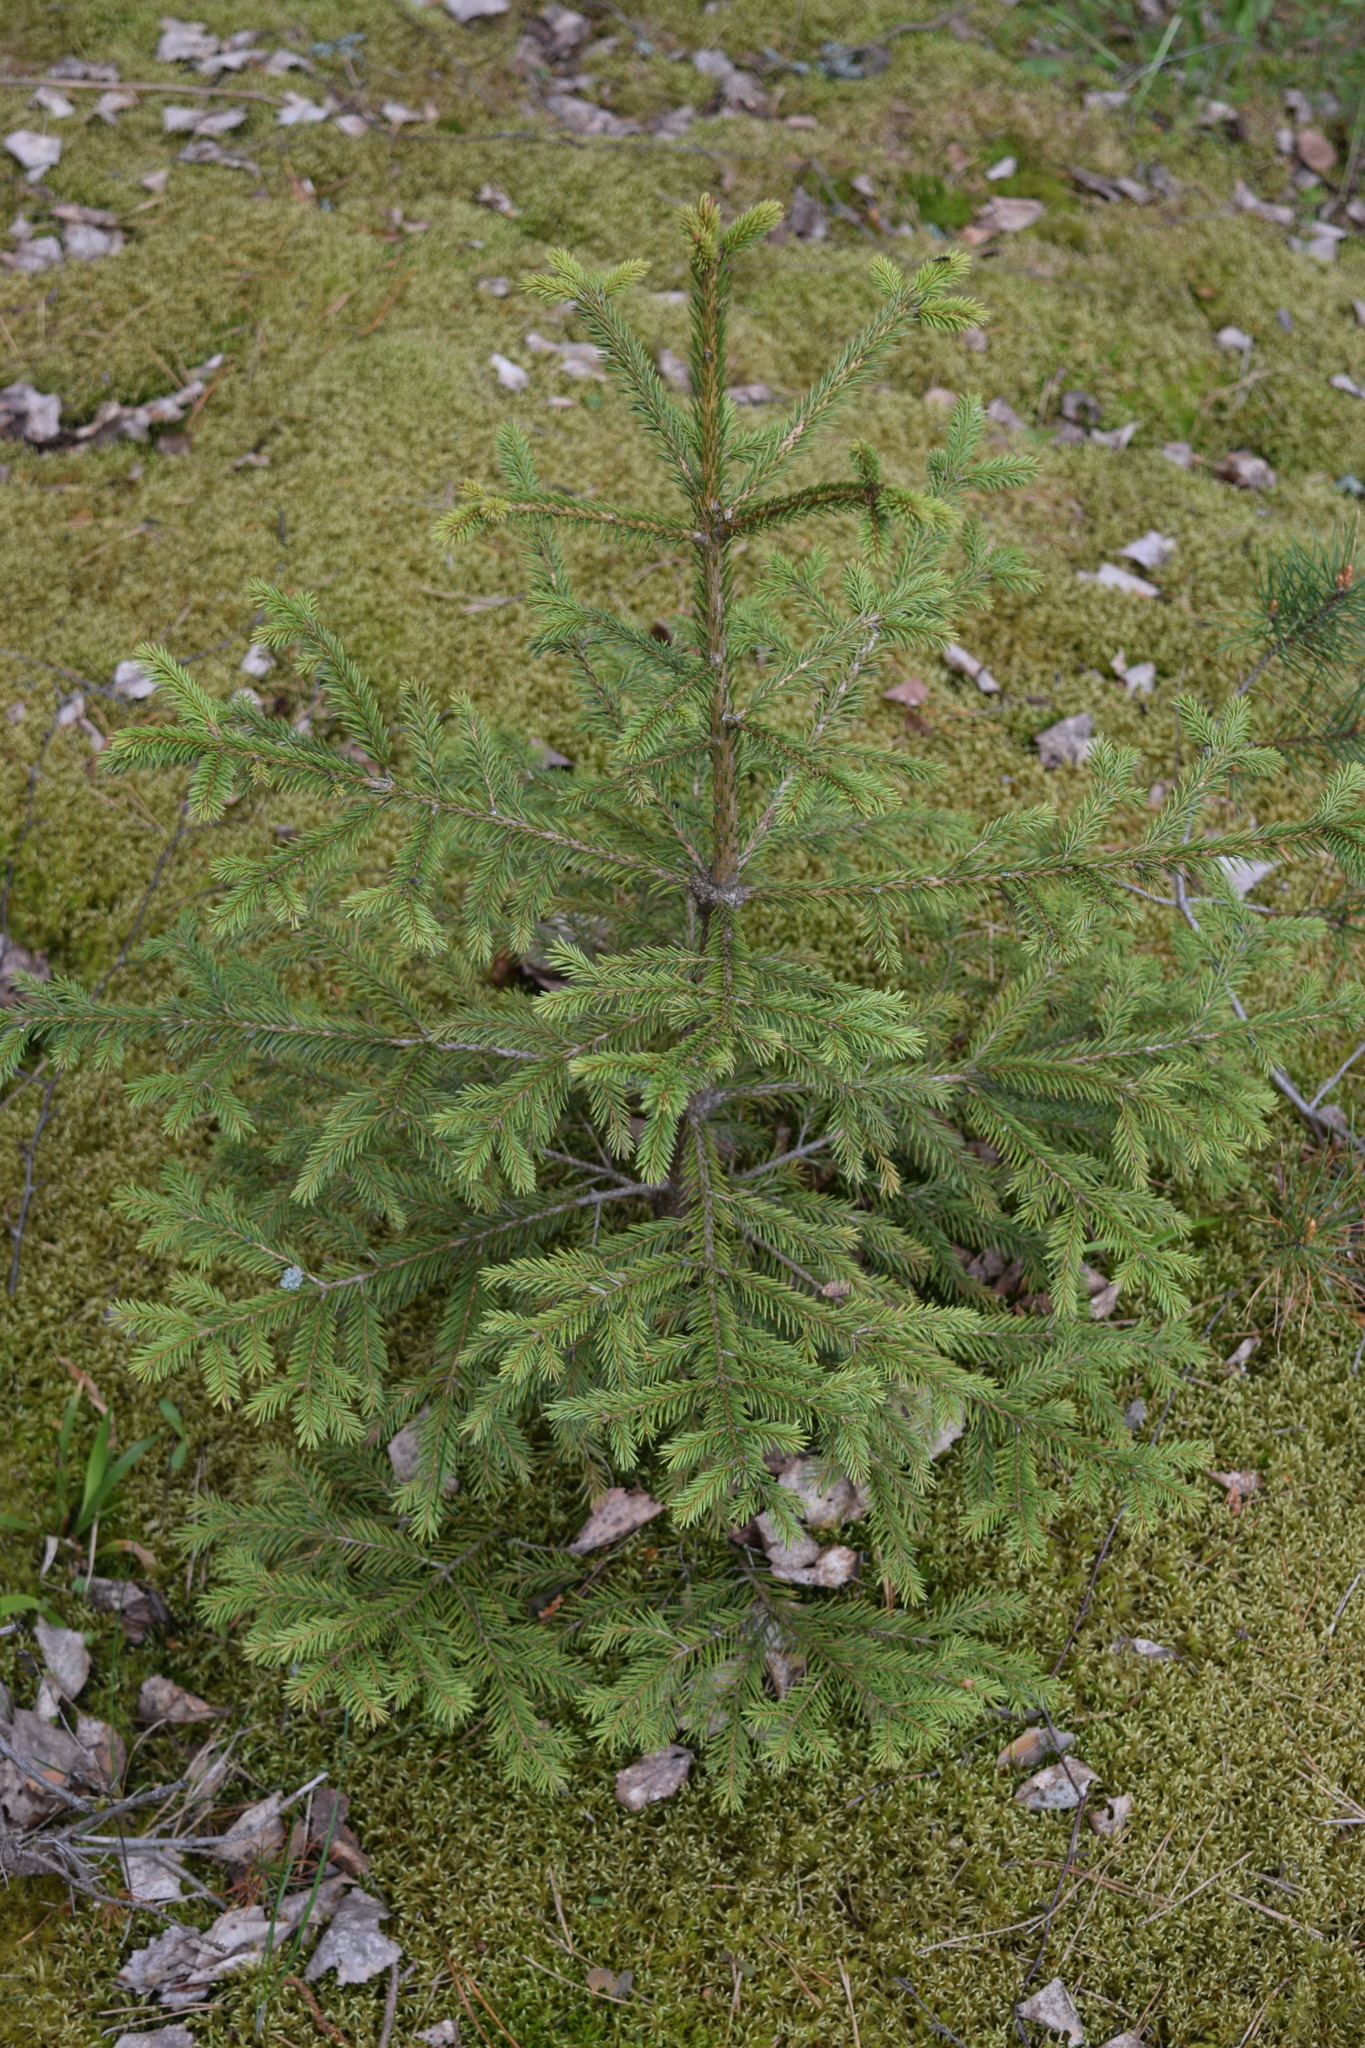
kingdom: Plantae
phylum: Tracheophyta
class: Pinopsida
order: Pinales
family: Pinaceae
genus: Picea
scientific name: Picea abies
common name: Norway spruce
